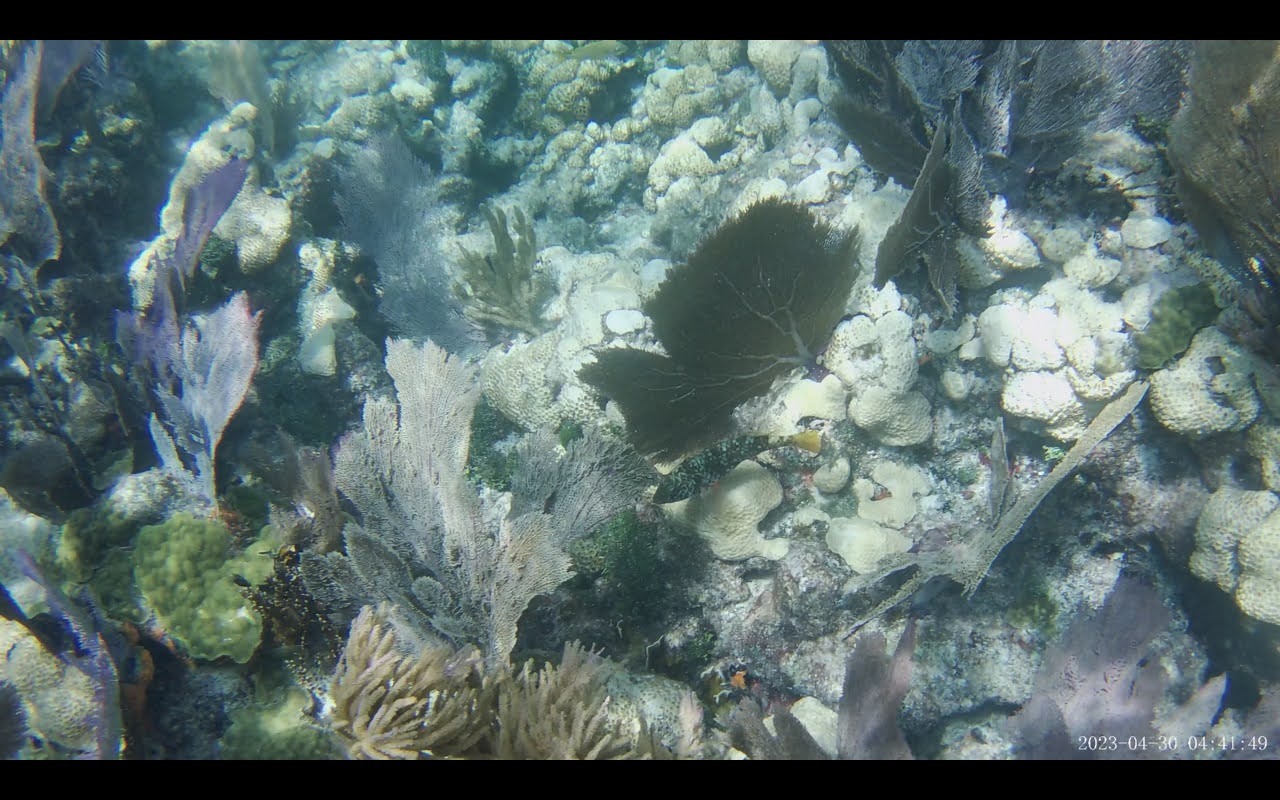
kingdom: Animalia
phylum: Chordata
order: Perciformes
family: Scaridae
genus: Sparisoma
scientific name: Sparisoma rubripinne
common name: Redfin parrotfish
